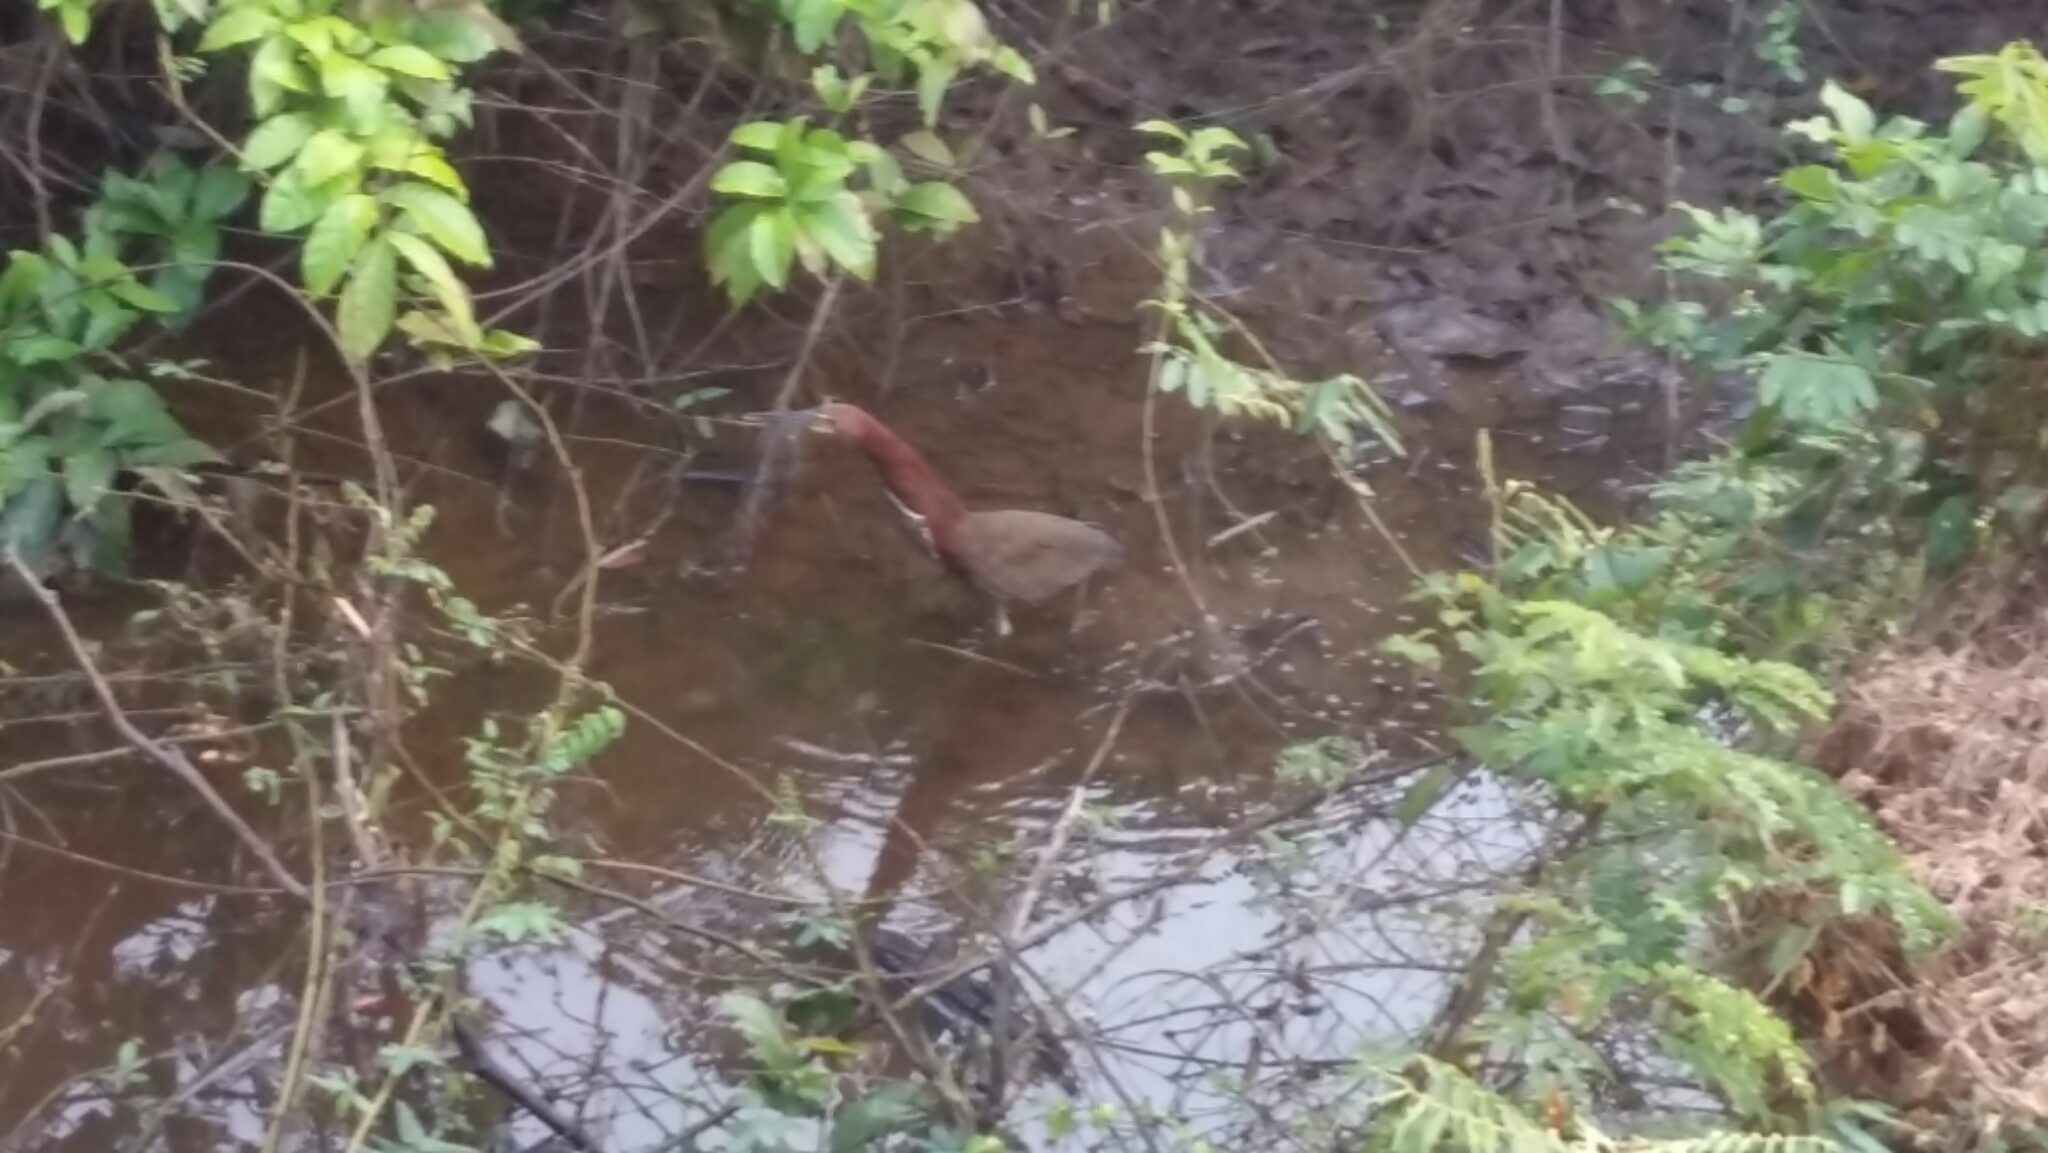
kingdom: Animalia
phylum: Chordata
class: Aves
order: Pelecaniformes
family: Ardeidae
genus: Tigrisoma
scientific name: Tigrisoma lineatum
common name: Rufescent tiger-heron
